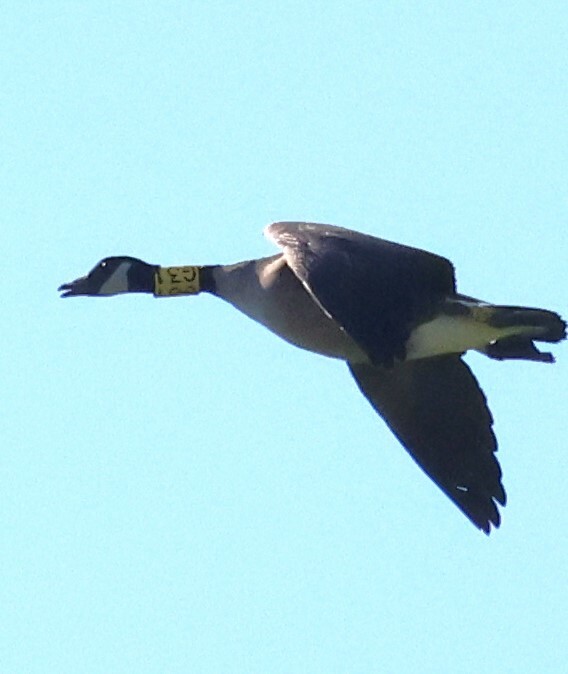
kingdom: Animalia
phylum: Chordata
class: Aves
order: Anseriformes
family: Anatidae
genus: Branta
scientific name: Branta canadensis
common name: Canada goose
